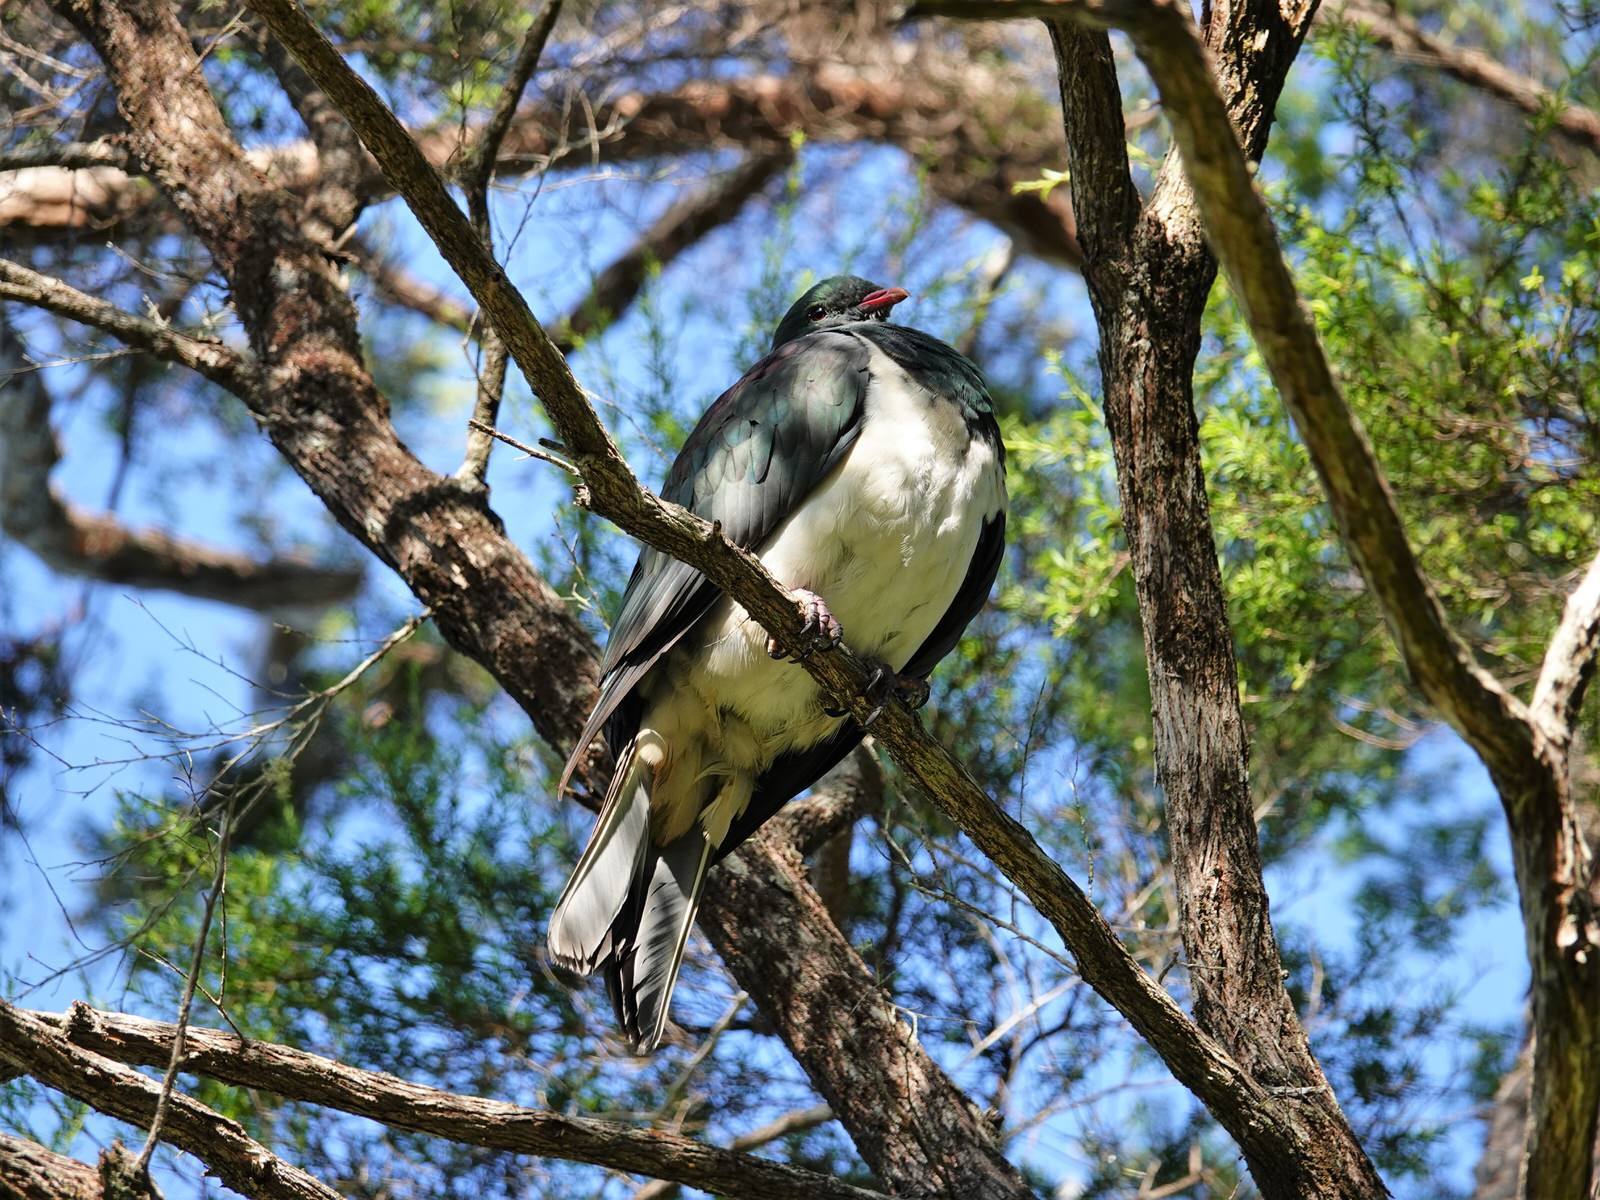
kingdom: Animalia
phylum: Chordata
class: Aves
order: Columbiformes
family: Columbidae
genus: Hemiphaga
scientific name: Hemiphaga novaeseelandiae
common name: New zealand pigeon
